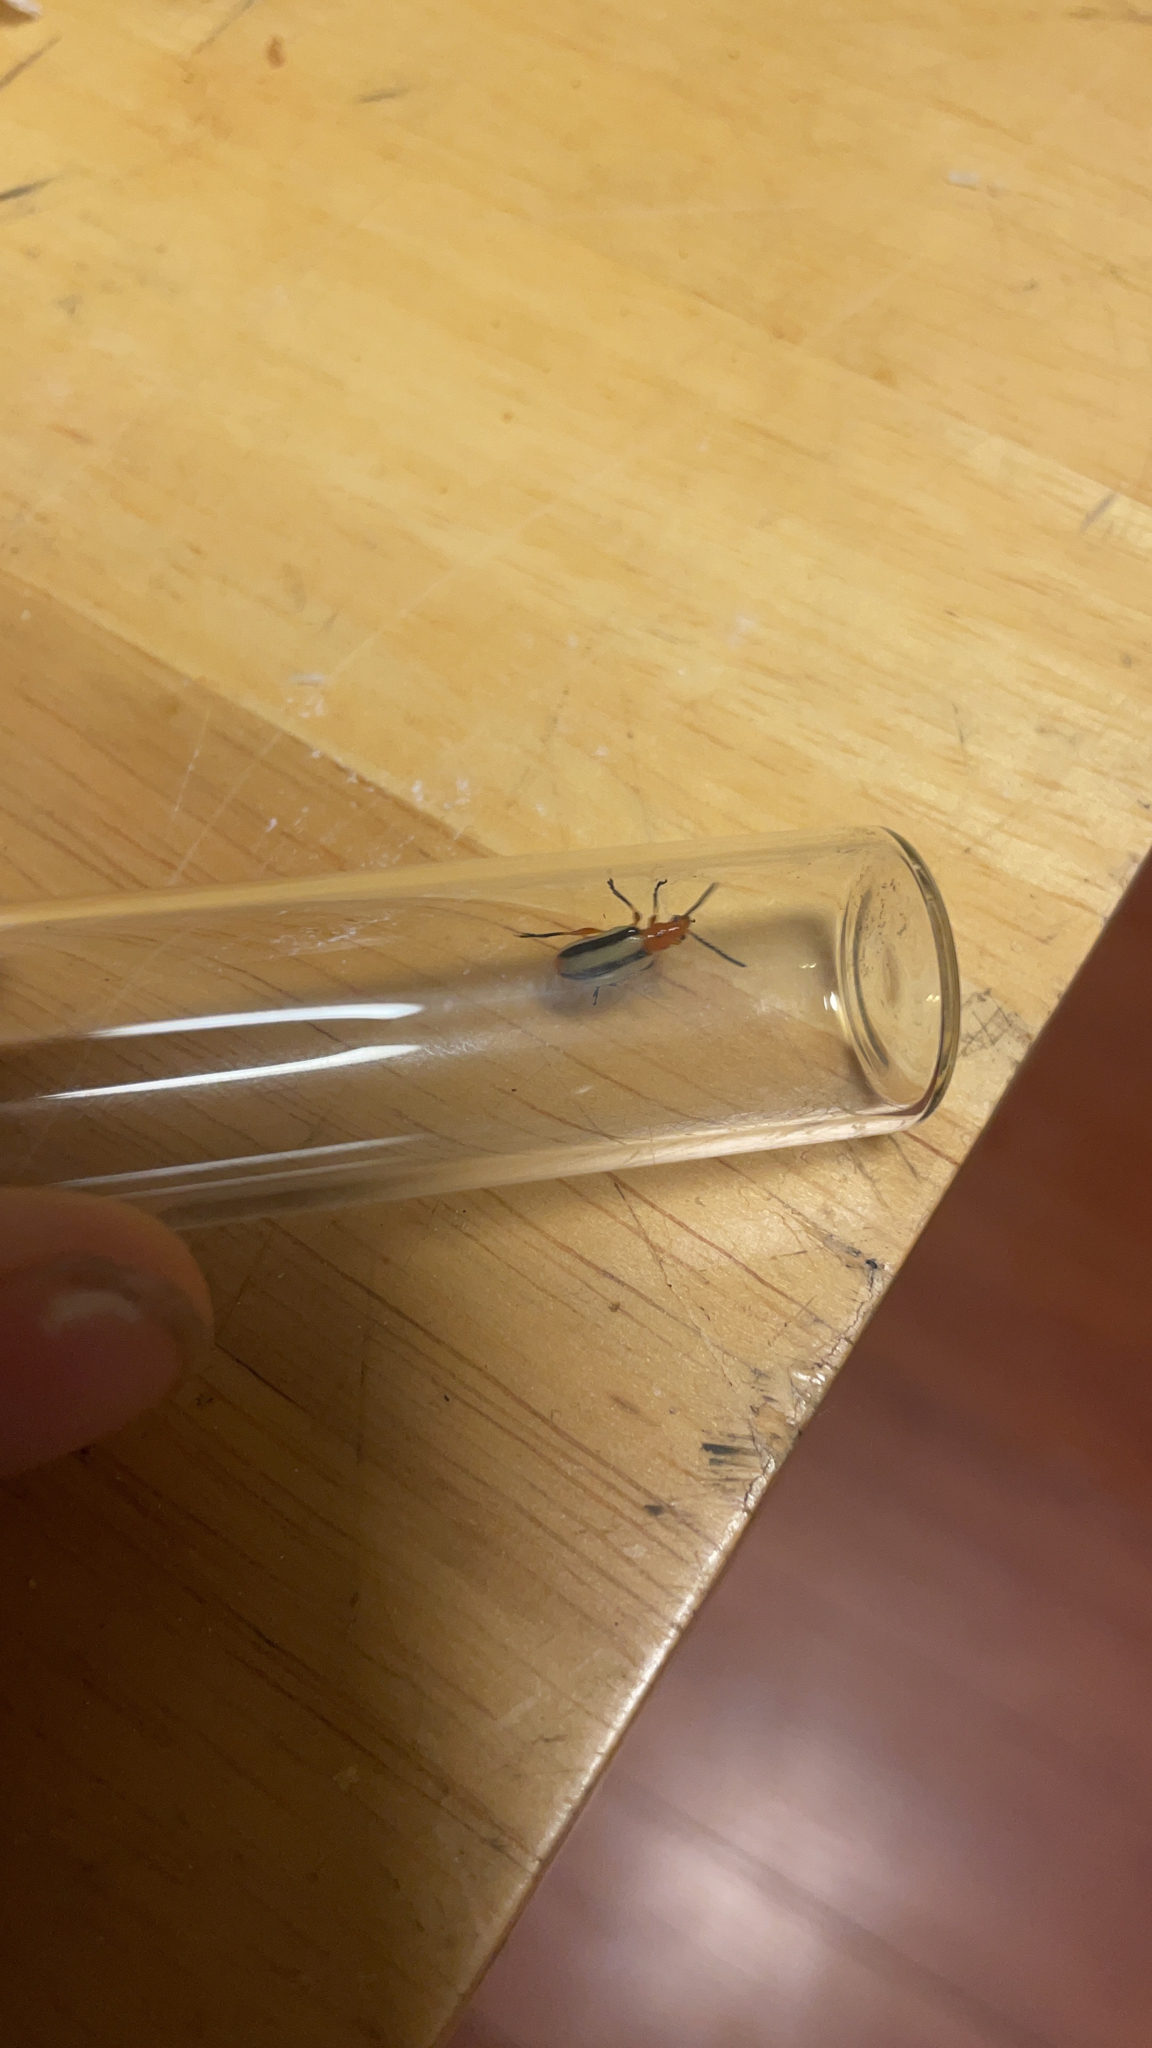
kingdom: Animalia
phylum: Arthropoda
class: Insecta
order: Coleoptera
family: Chrysomelidae
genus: Lema
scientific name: Lema daturaphila
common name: Leaf beetle
